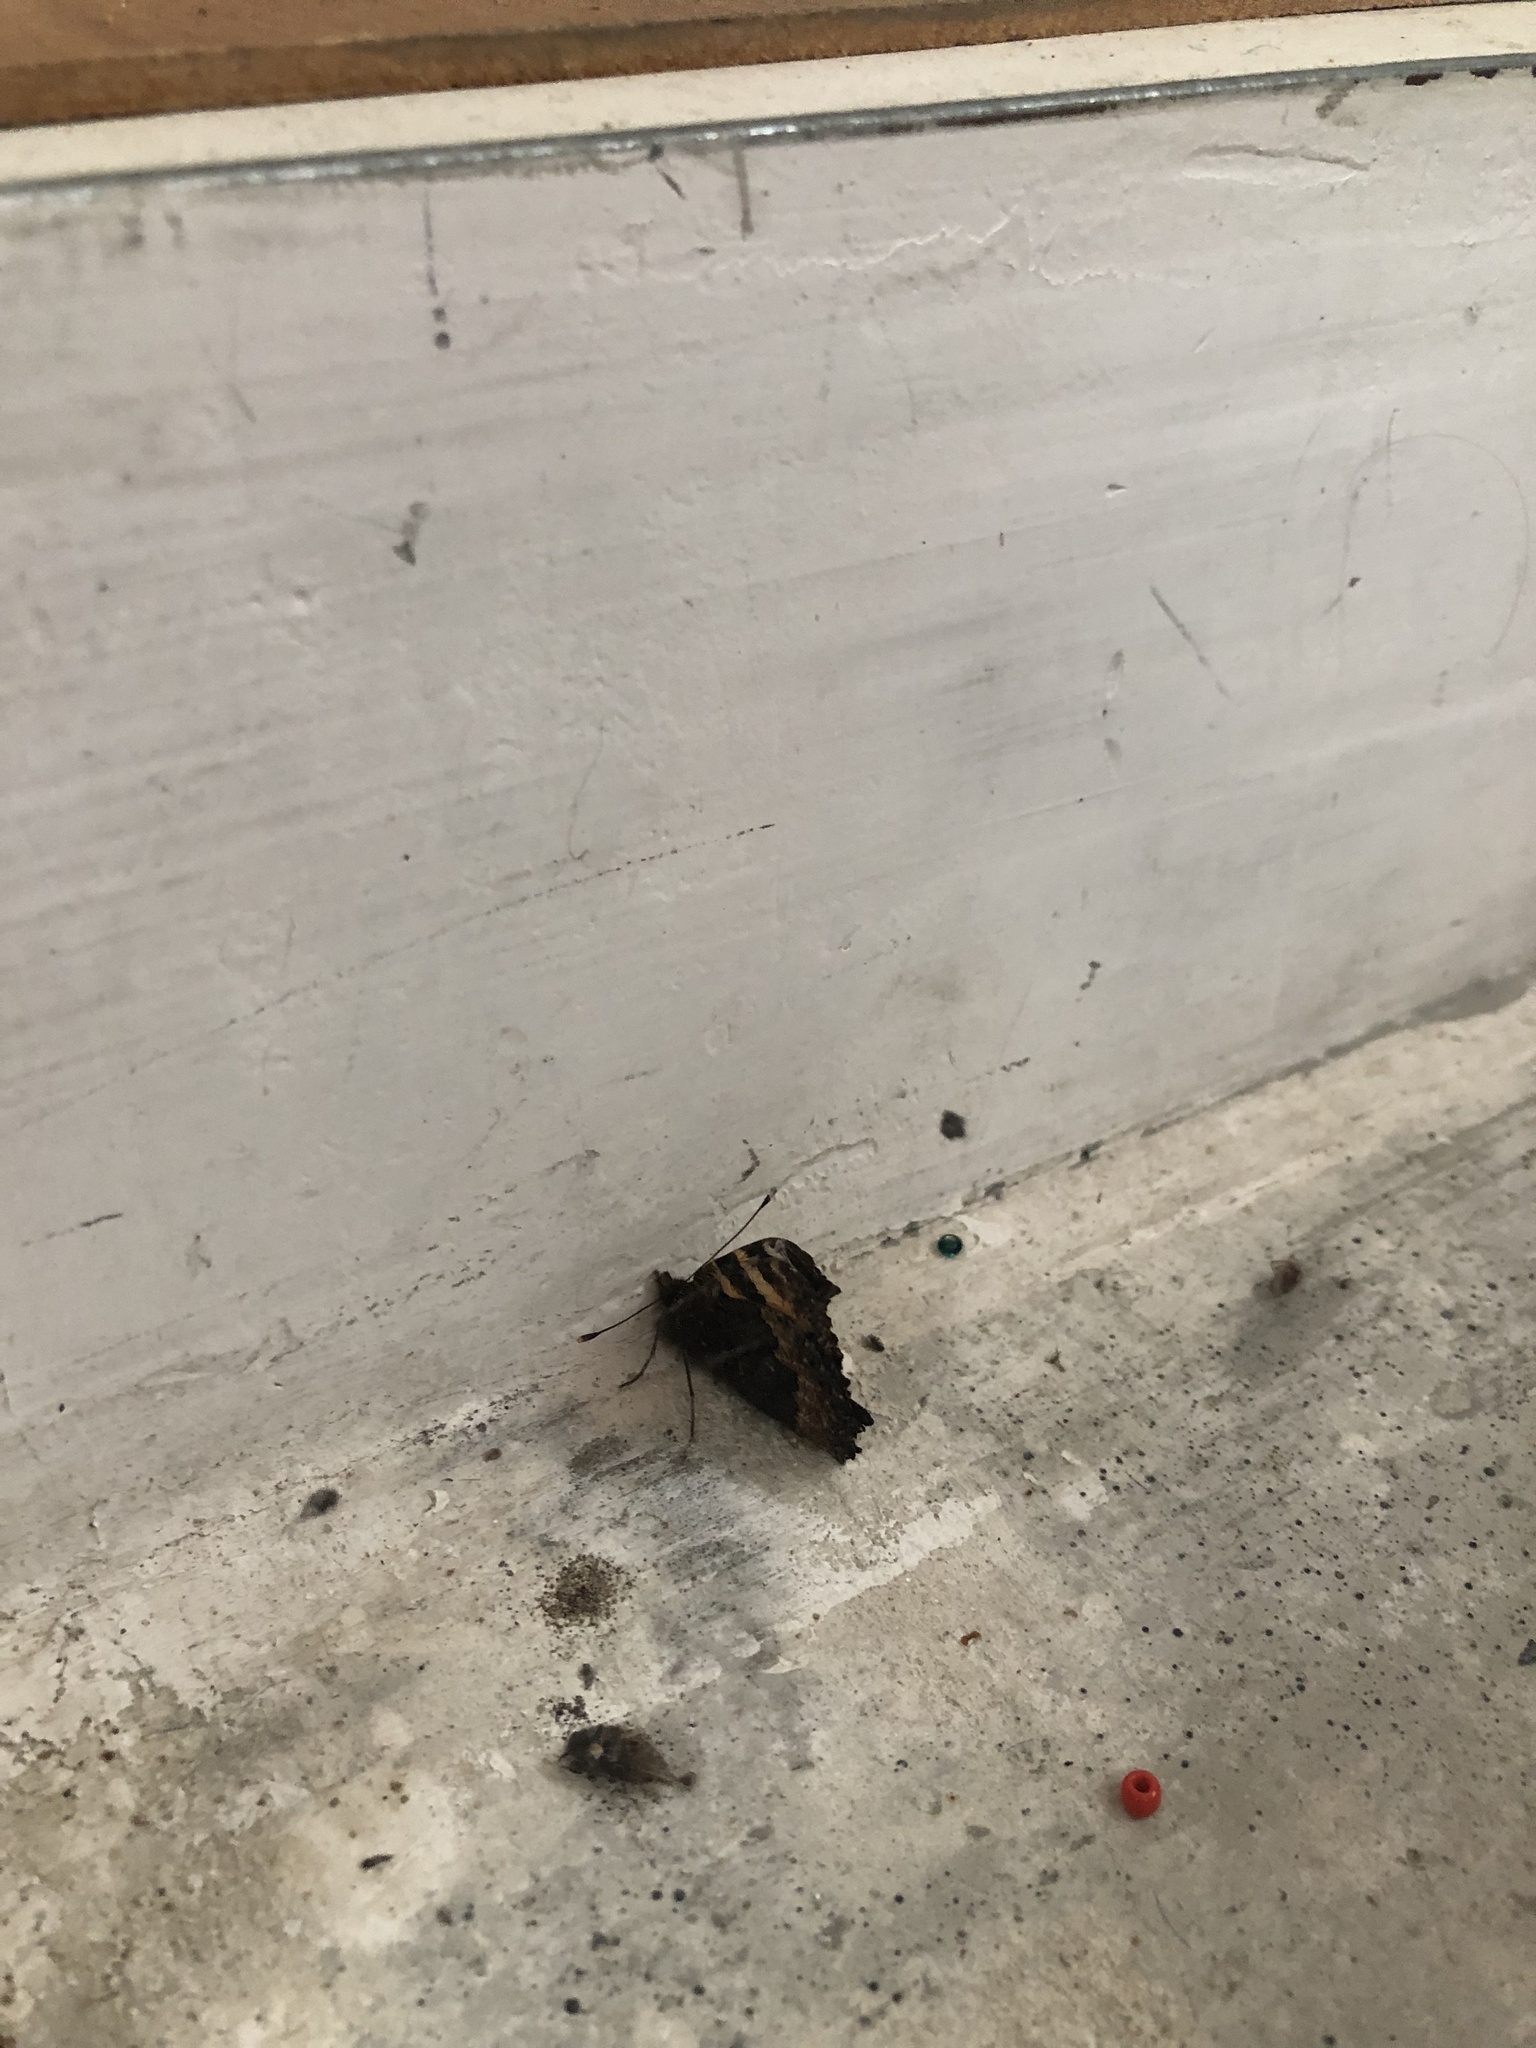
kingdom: Animalia
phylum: Arthropoda
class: Insecta
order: Lepidoptera
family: Nymphalidae
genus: Aglais
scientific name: Aglais urticae
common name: Small tortoiseshell
